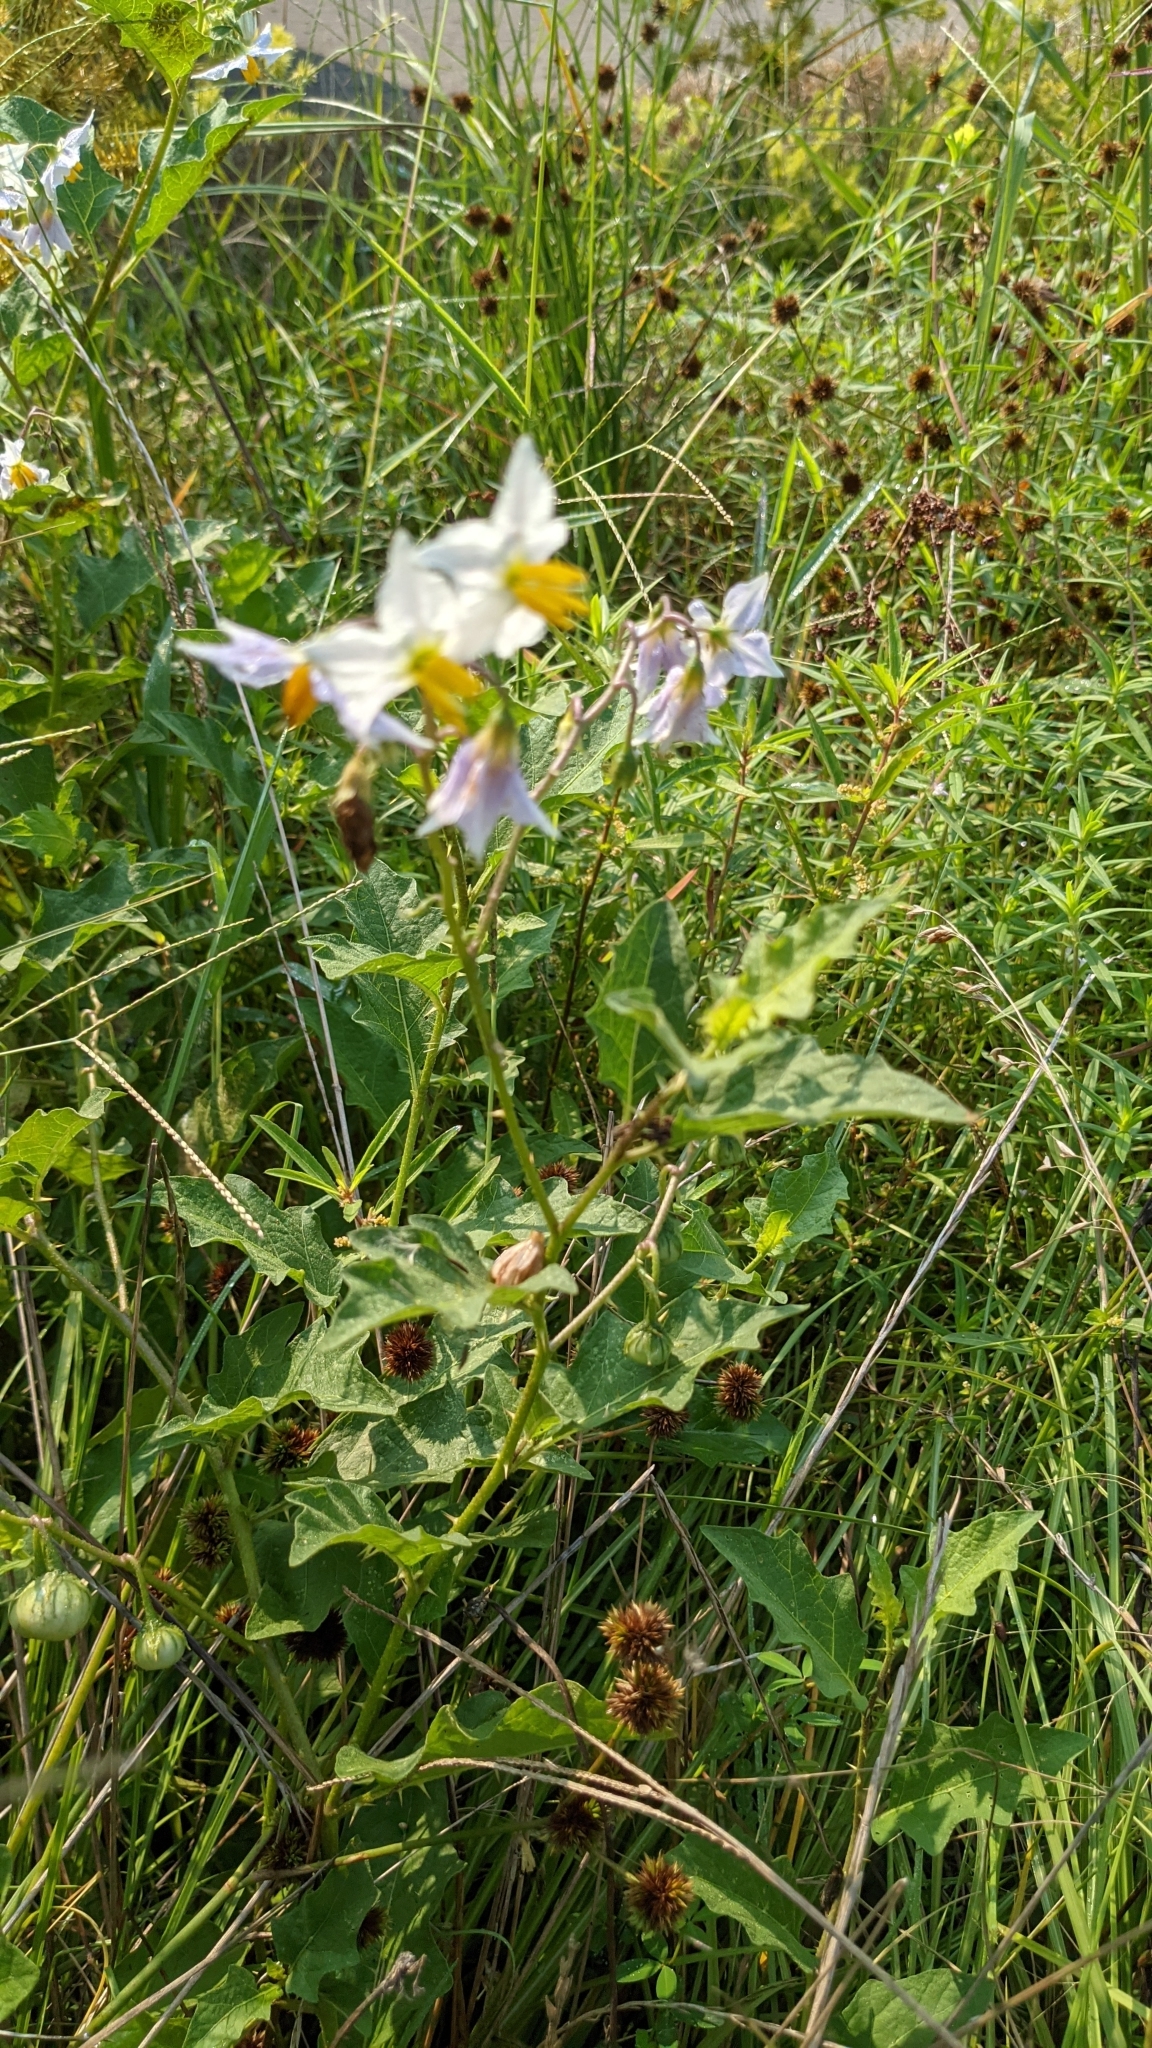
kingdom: Plantae
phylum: Tracheophyta
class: Magnoliopsida
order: Solanales
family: Solanaceae
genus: Solanum
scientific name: Solanum carolinense
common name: Horse-nettle
